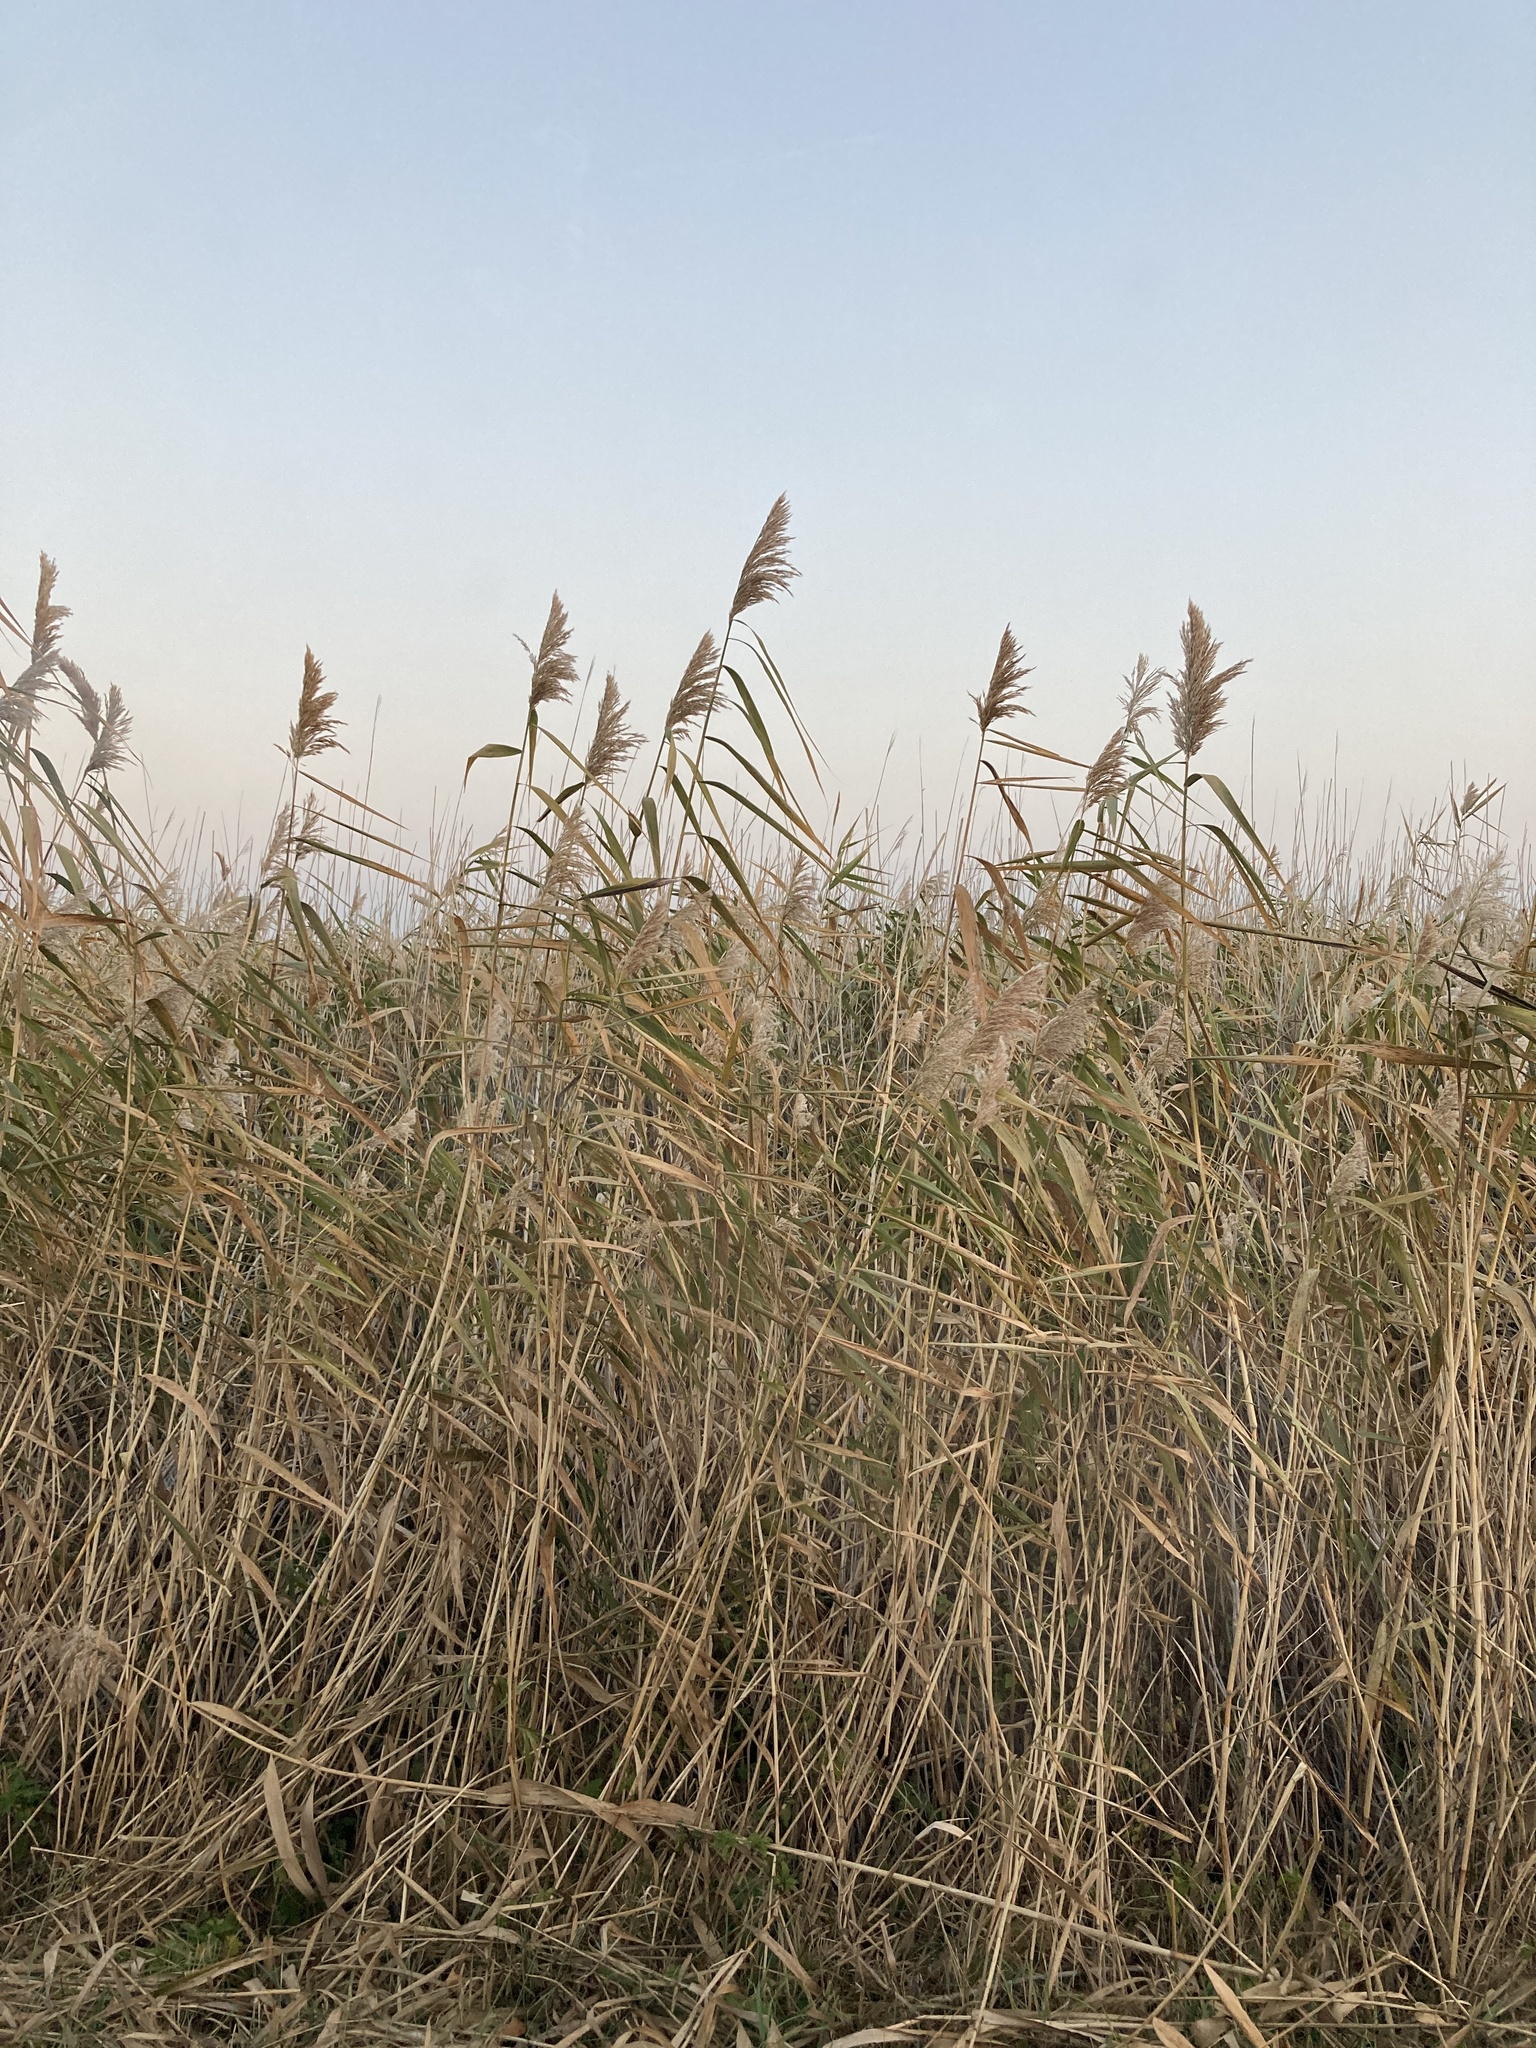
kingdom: Plantae
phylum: Tracheophyta
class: Liliopsida
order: Poales
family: Poaceae
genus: Phragmites
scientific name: Phragmites australis
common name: Common reed
